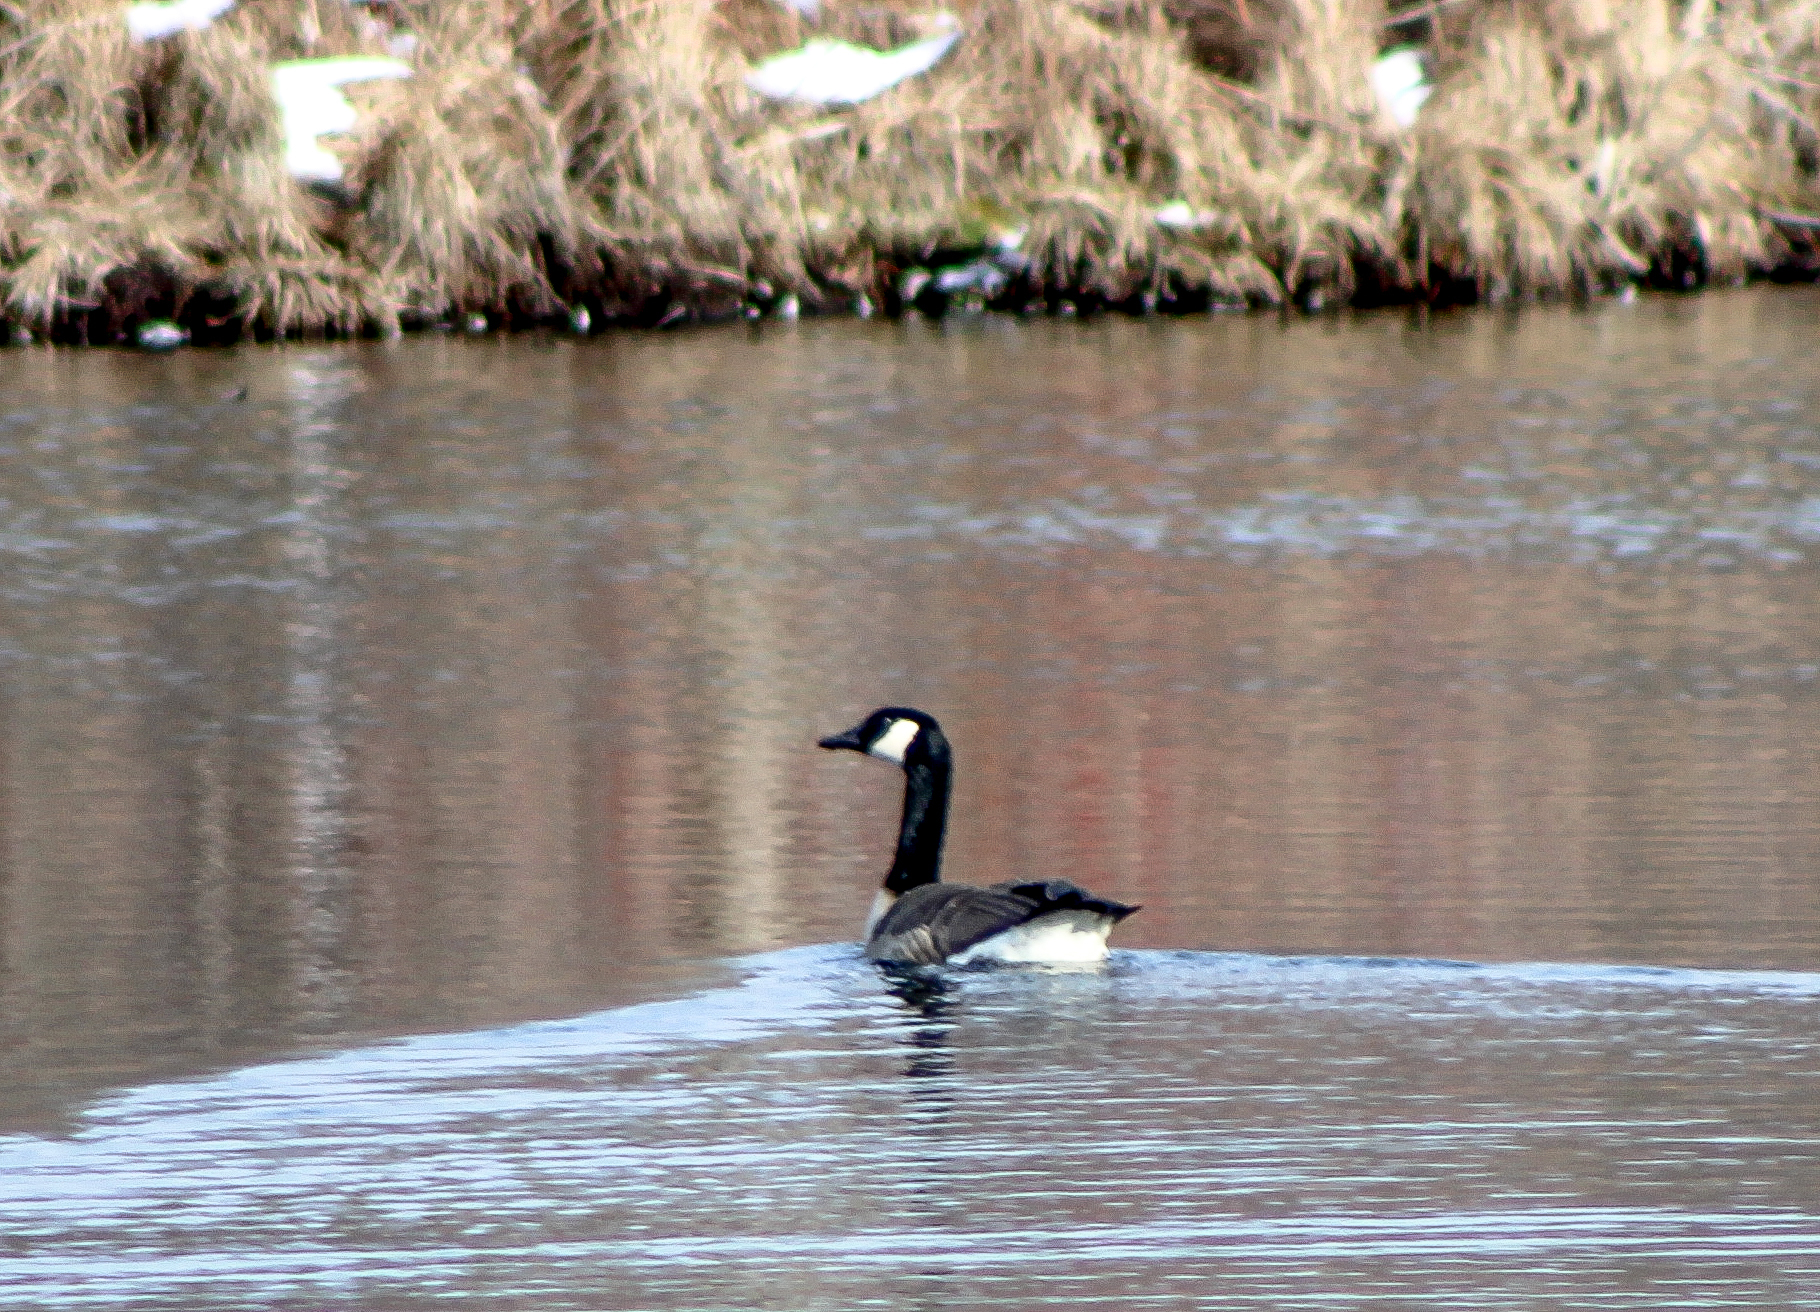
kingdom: Animalia
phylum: Chordata
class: Aves
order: Anseriformes
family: Anatidae
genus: Branta
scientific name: Branta canadensis
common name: Canada goose
